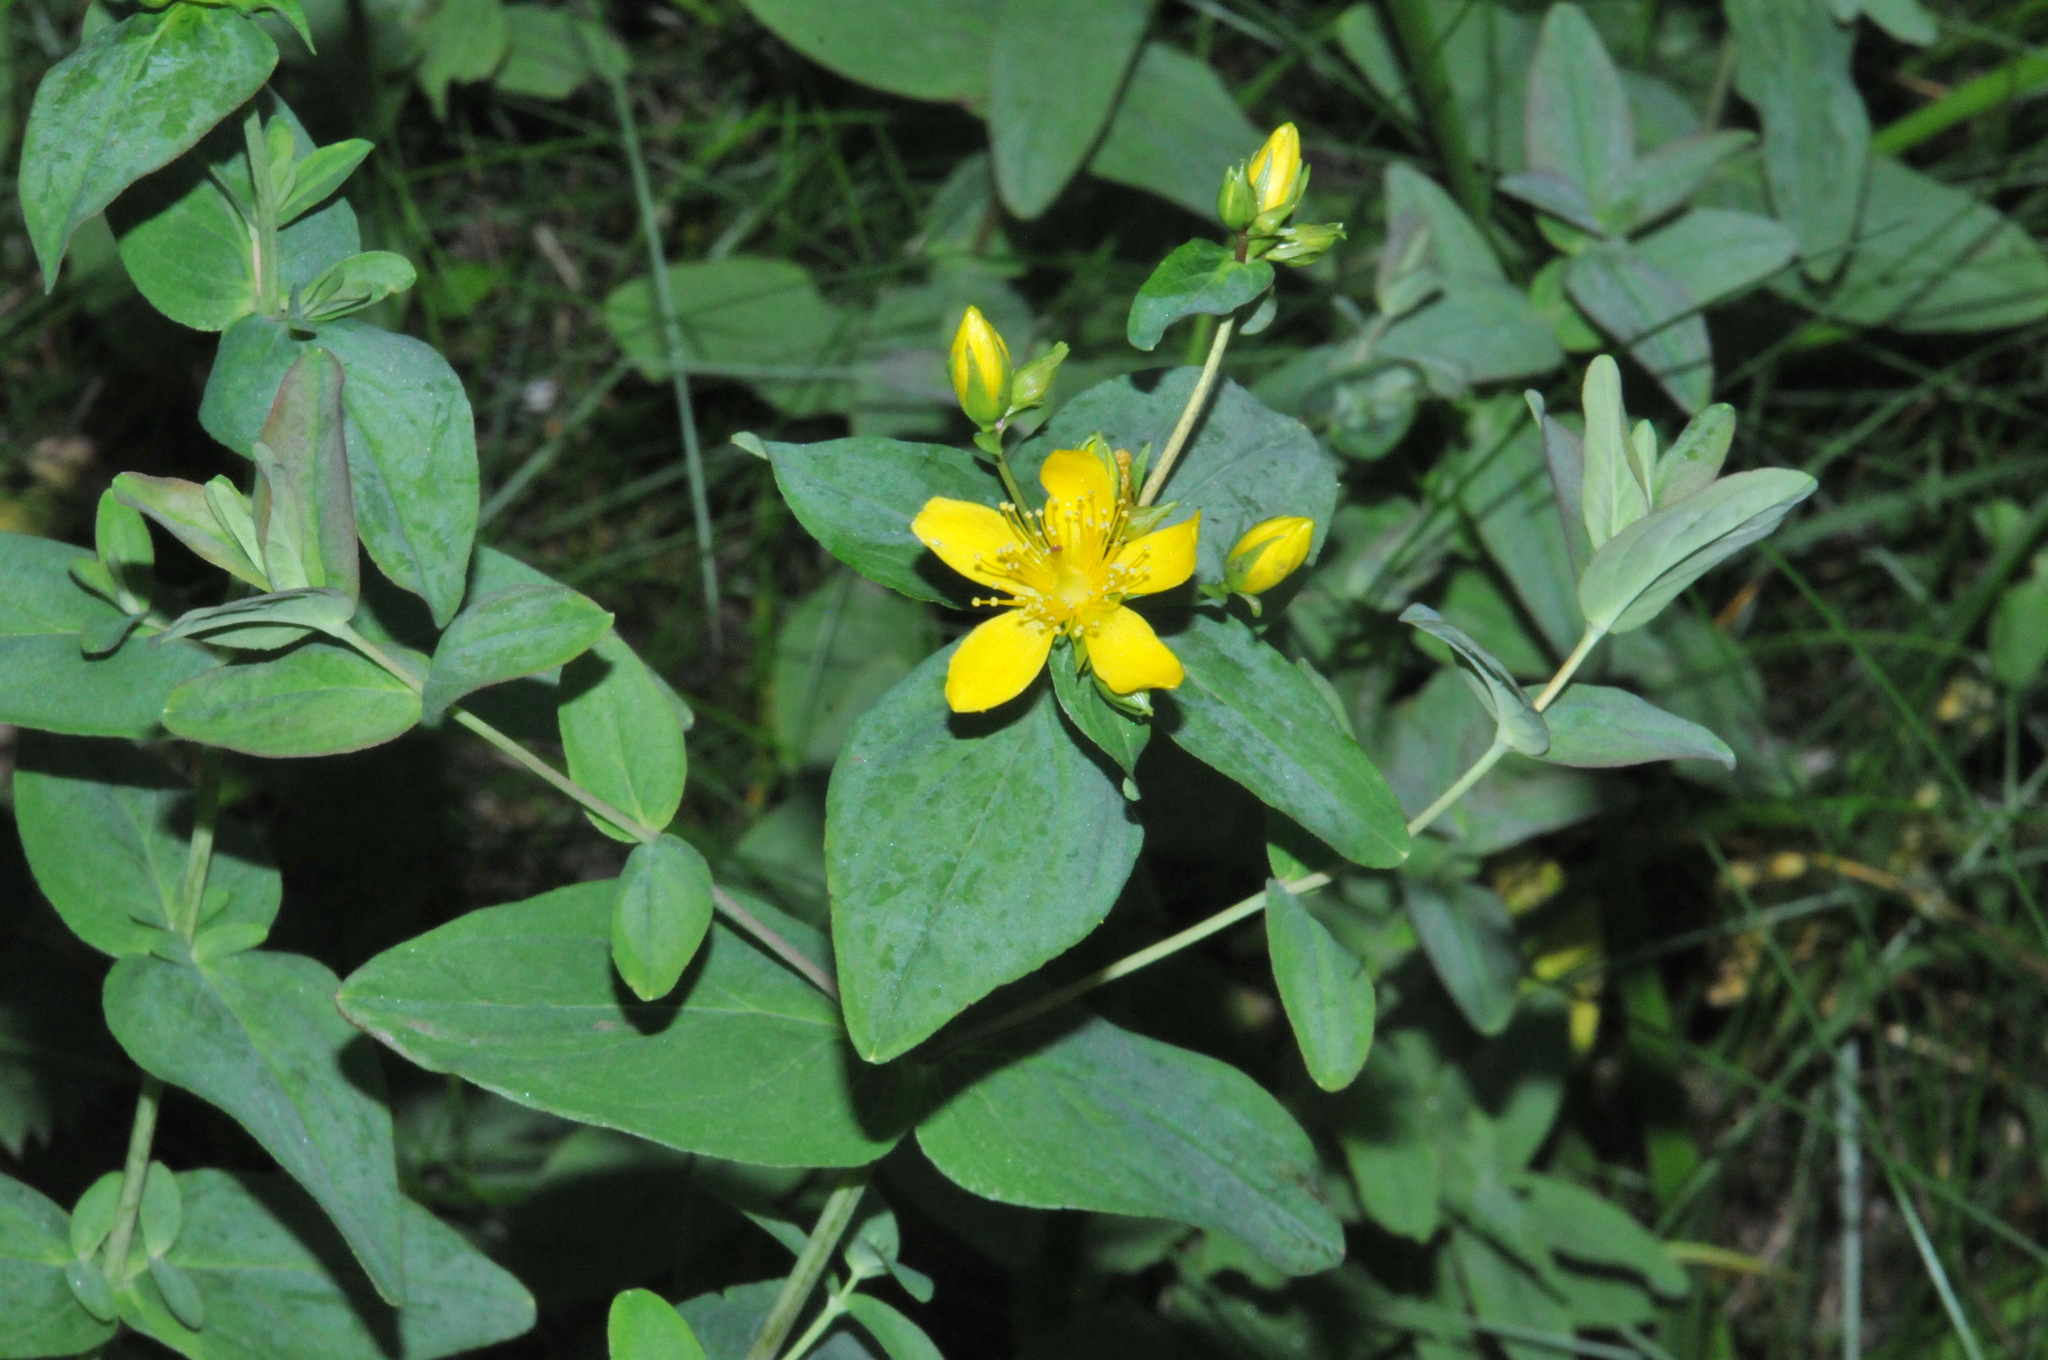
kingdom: Plantae
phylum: Tracheophyta
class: Magnoliopsida
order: Malpighiales
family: Hypericaceae
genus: Hypericum
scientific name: Hypericum mitchellianum
